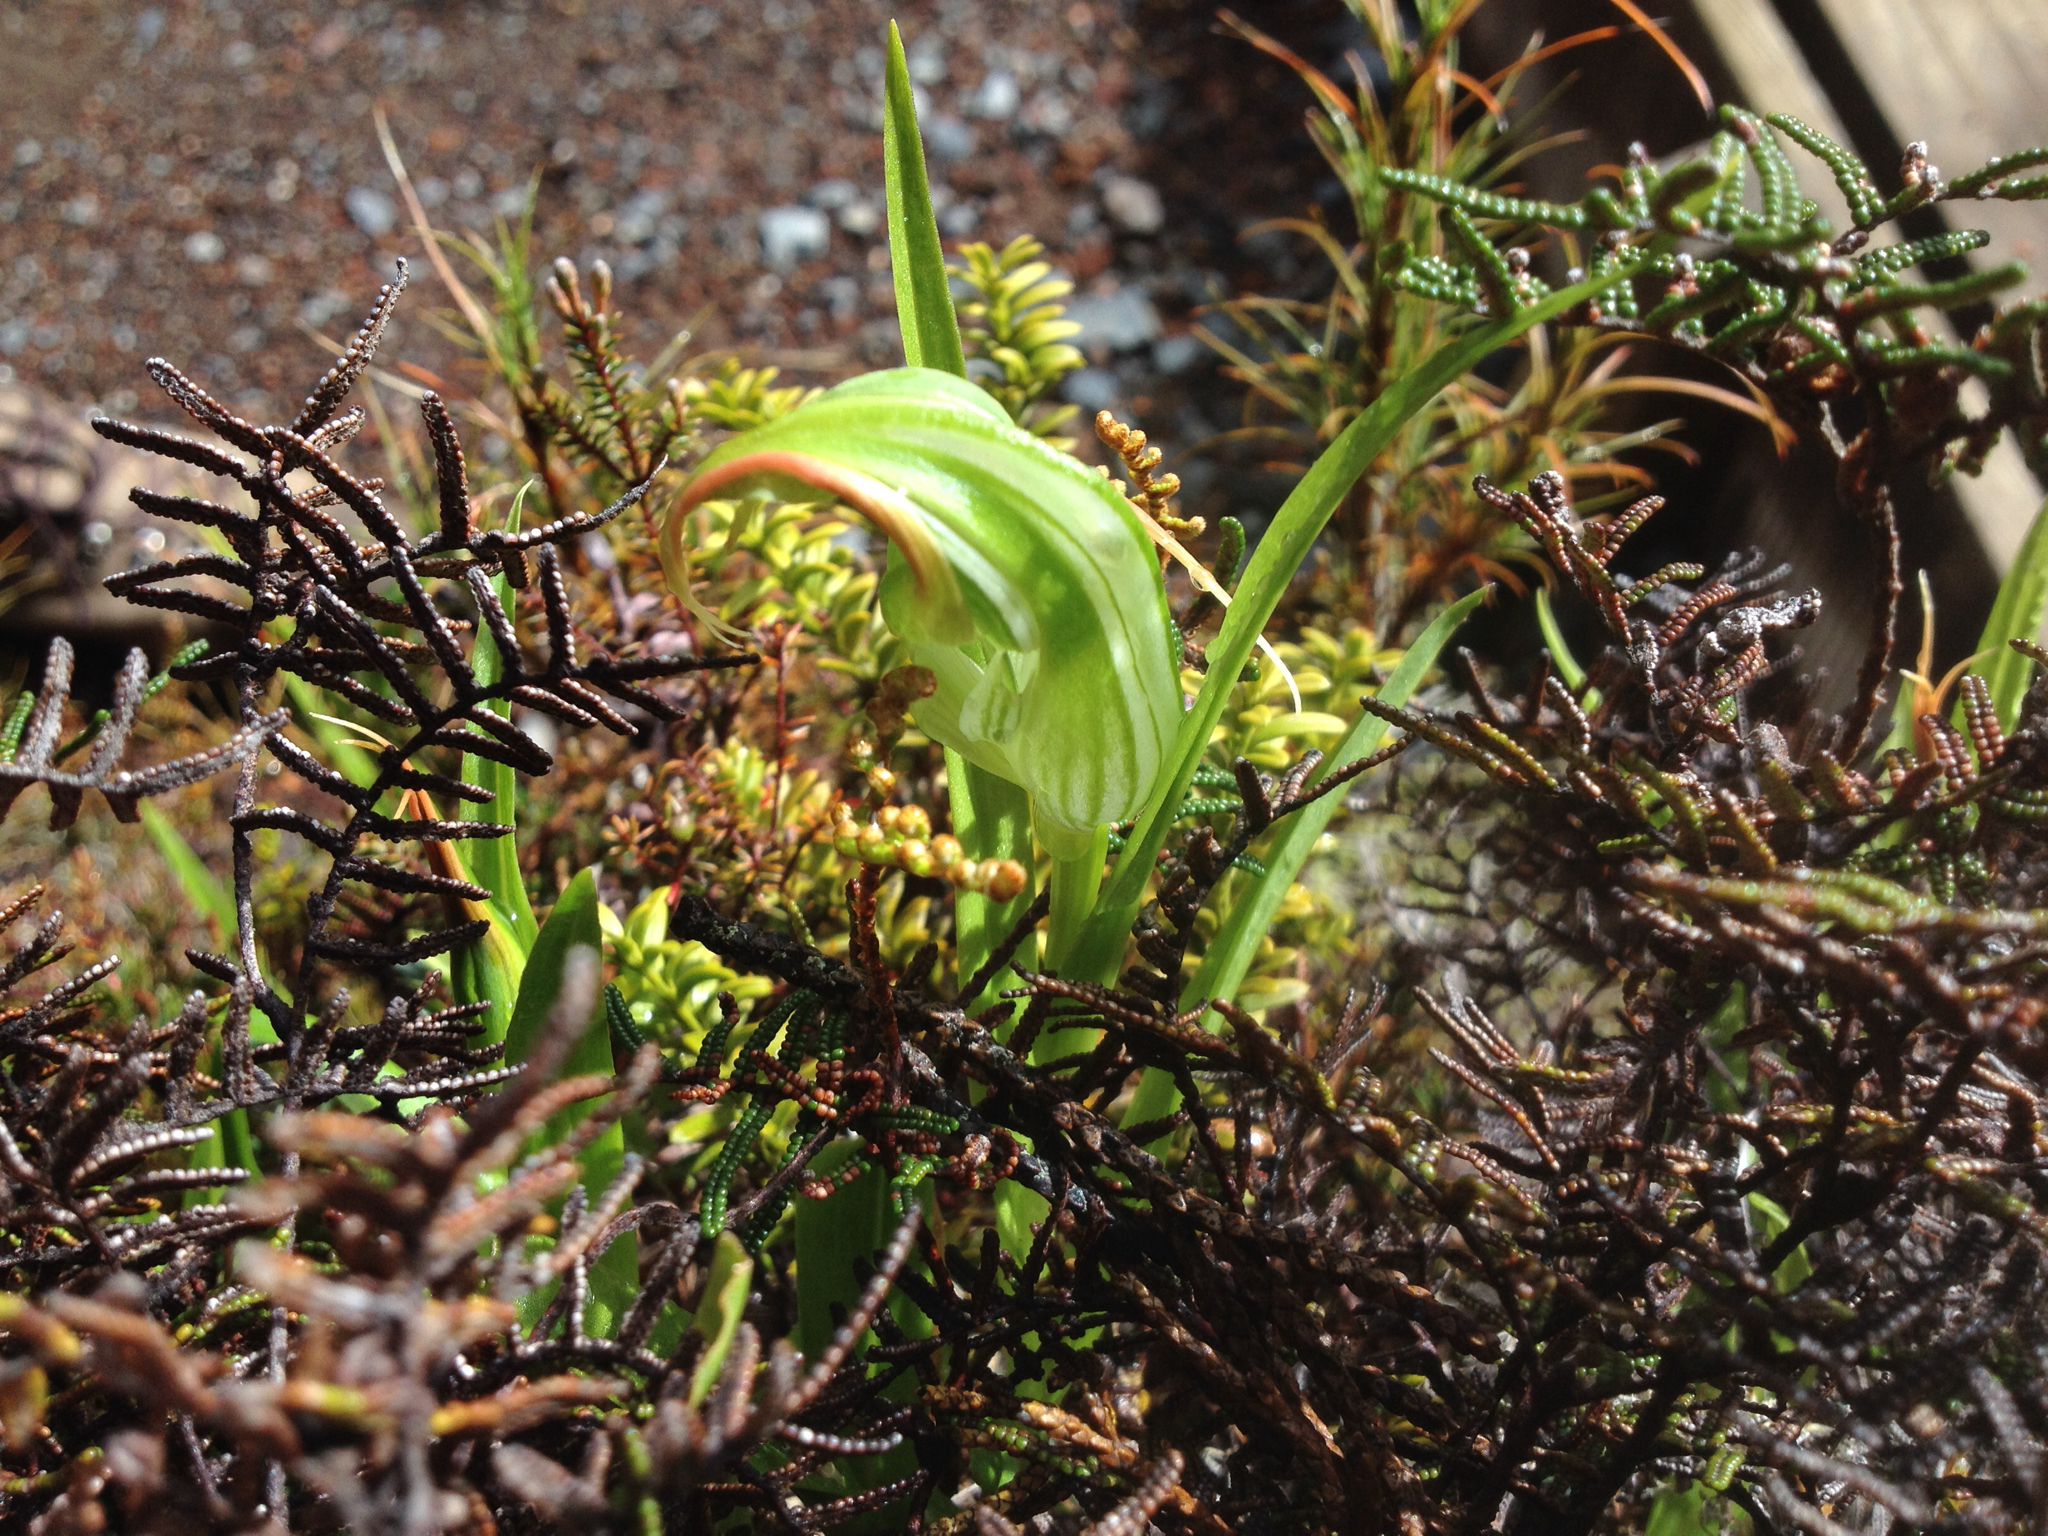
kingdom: Plantae
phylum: Tracheophyta
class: Liliopsida
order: Asparagales
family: Orchidaceae
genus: Pterostylis
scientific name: Pterostylis patens
